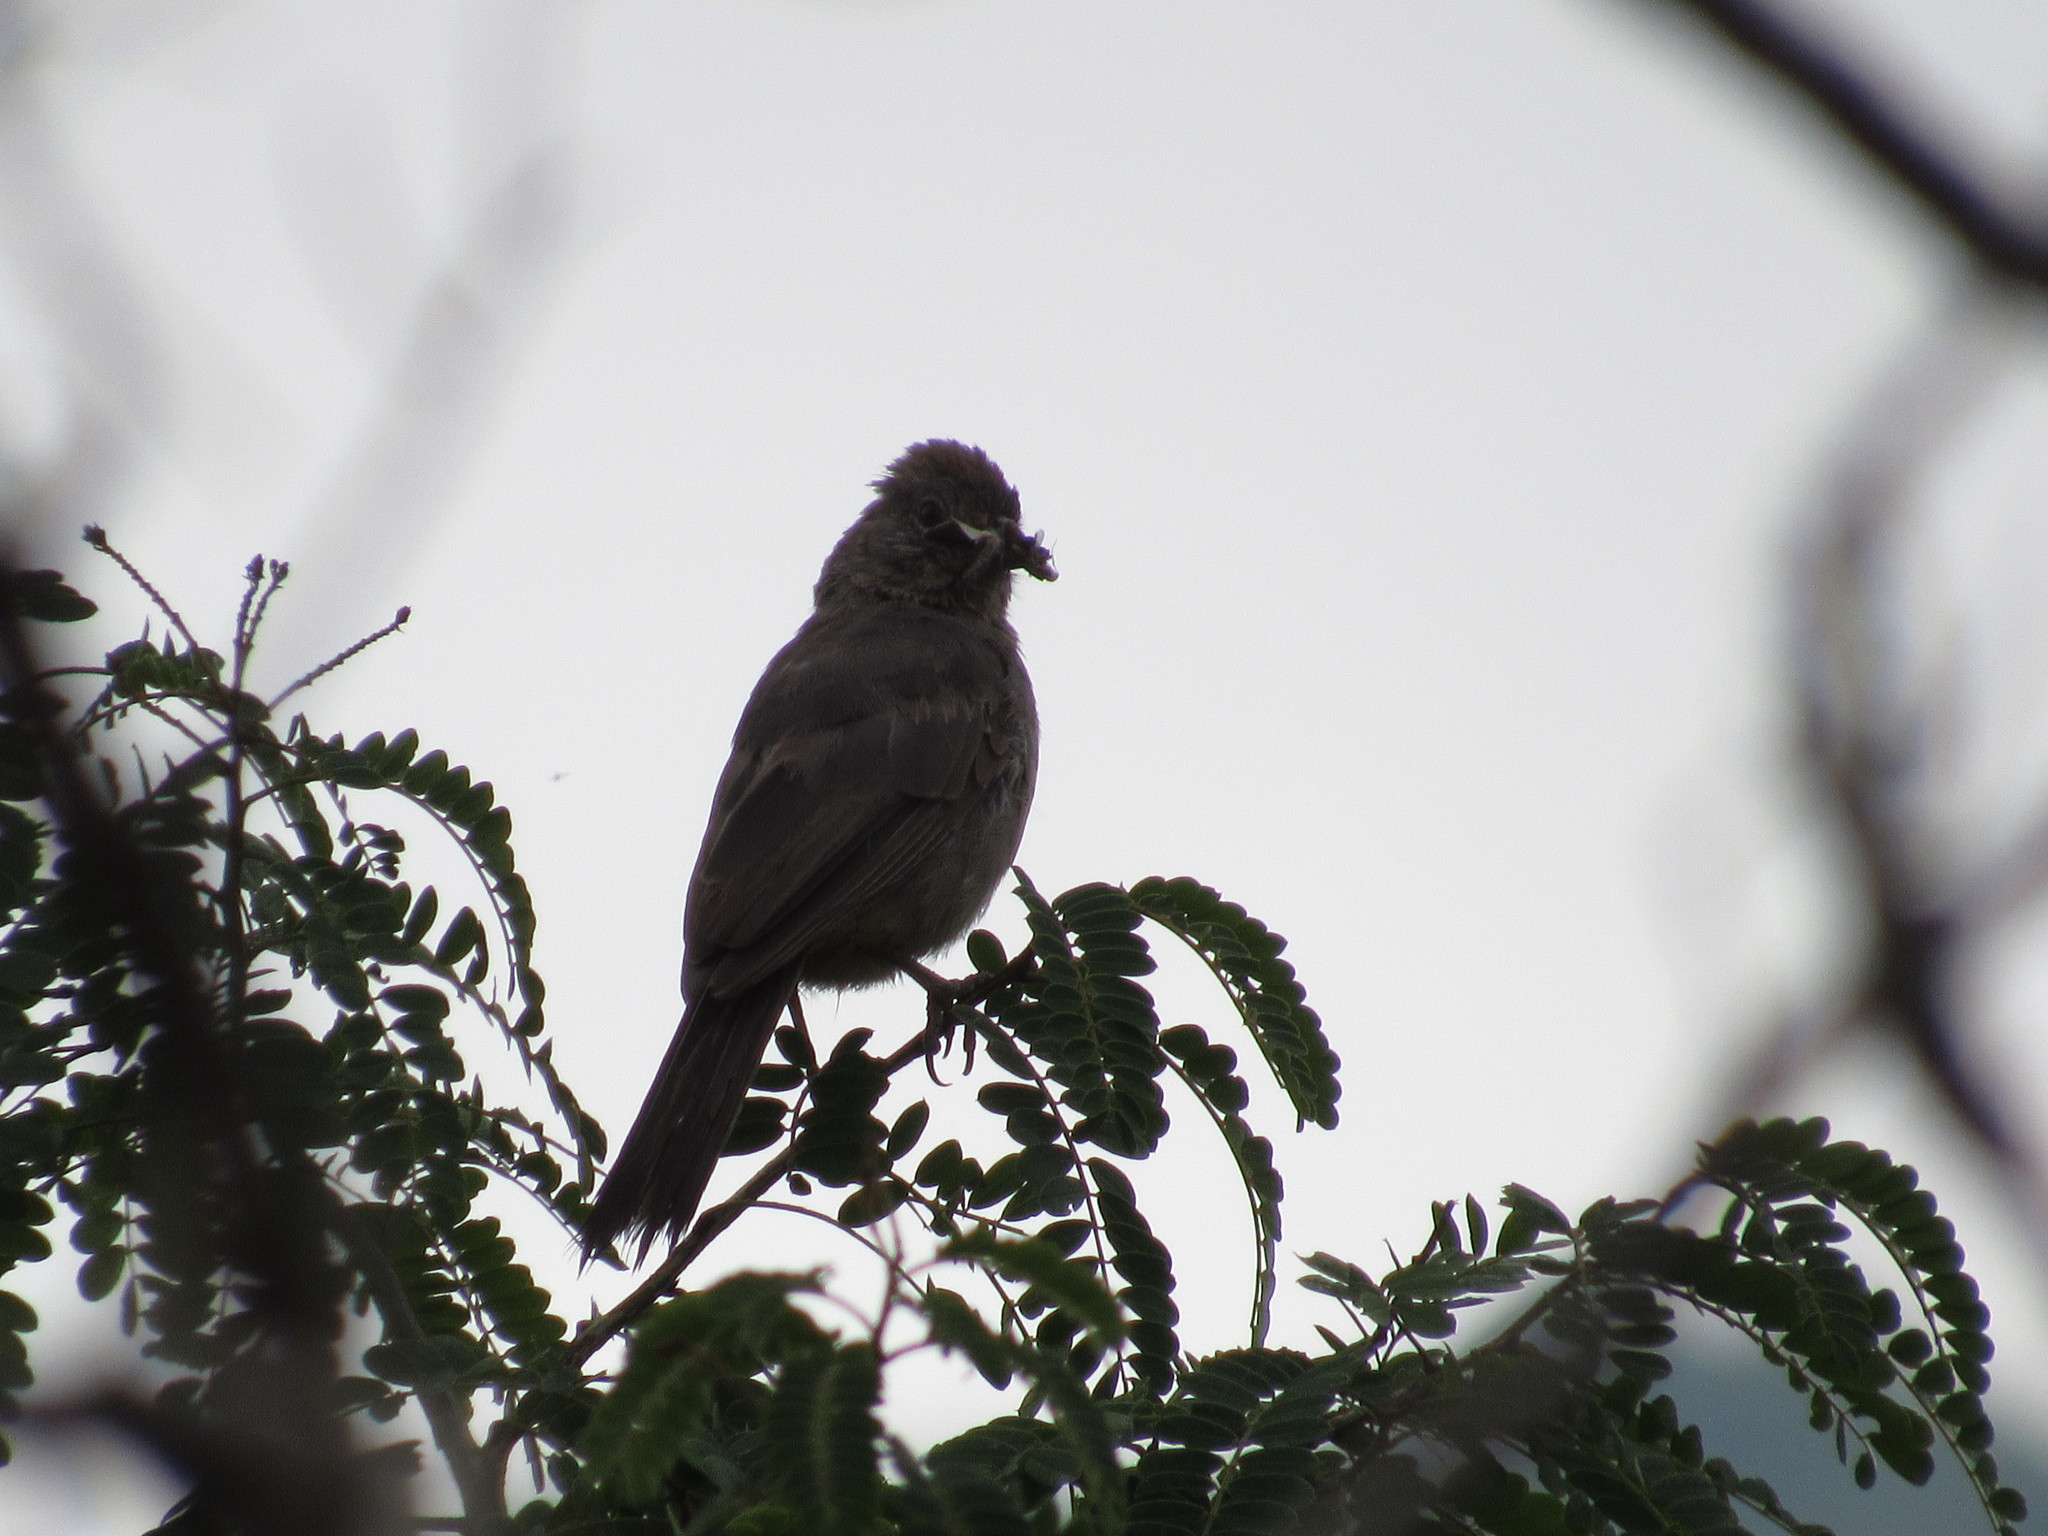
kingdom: Animalia
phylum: Chordata
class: Aves
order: Passeriformes
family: Passerellidae
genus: Melozone
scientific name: Melozone fusca
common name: Canyon towhee
